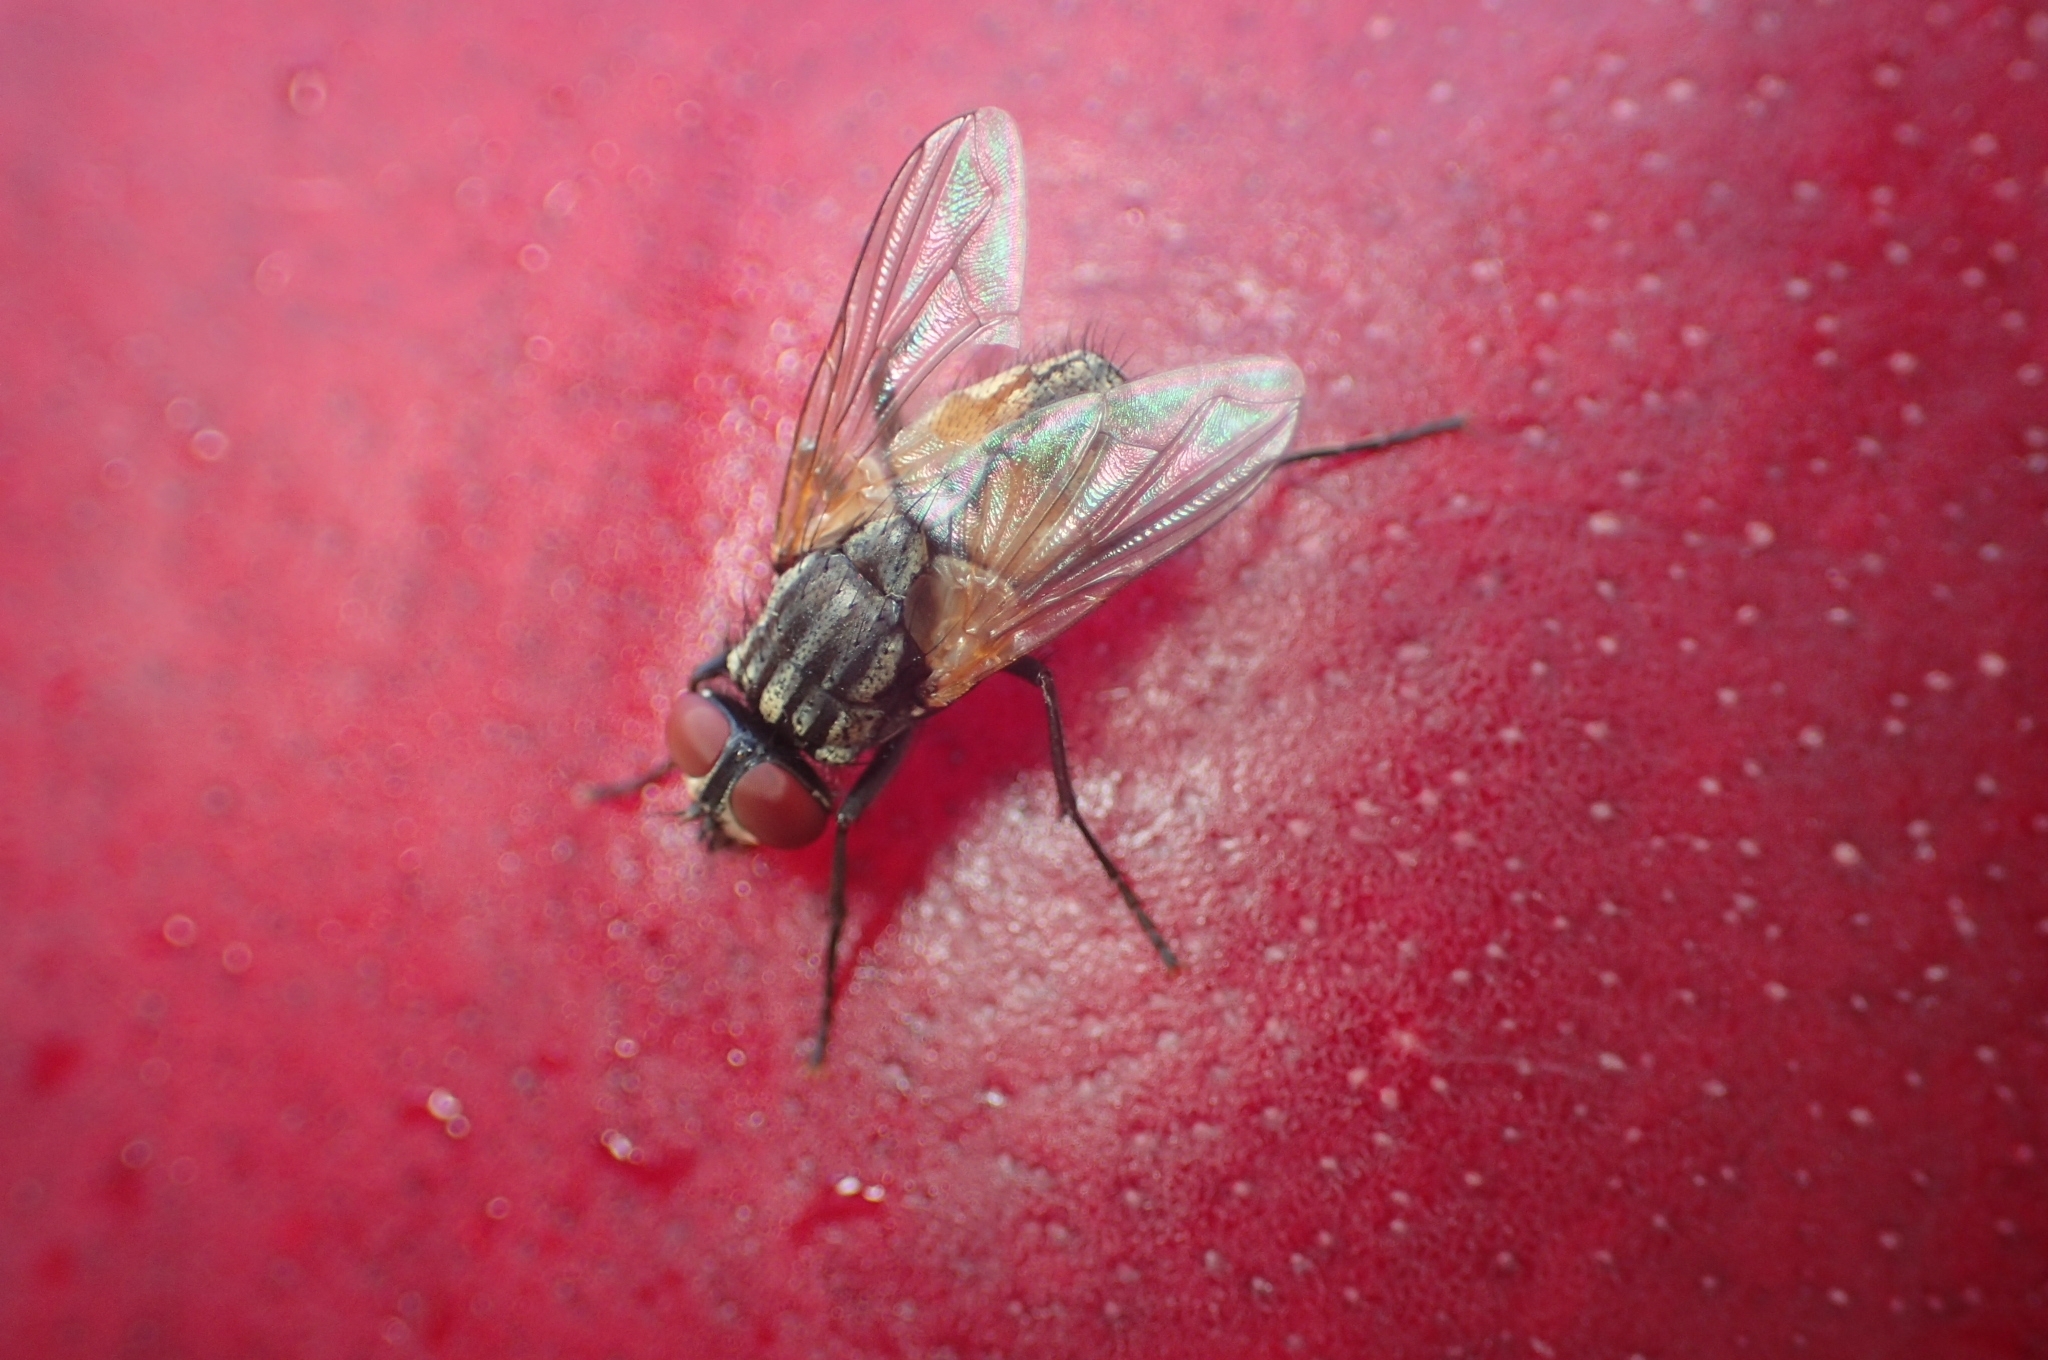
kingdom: Animalia
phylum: Arthropoda
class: Insecta
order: Diptera
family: Muscidae
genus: Musca
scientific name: Musca domestica
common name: House fly
